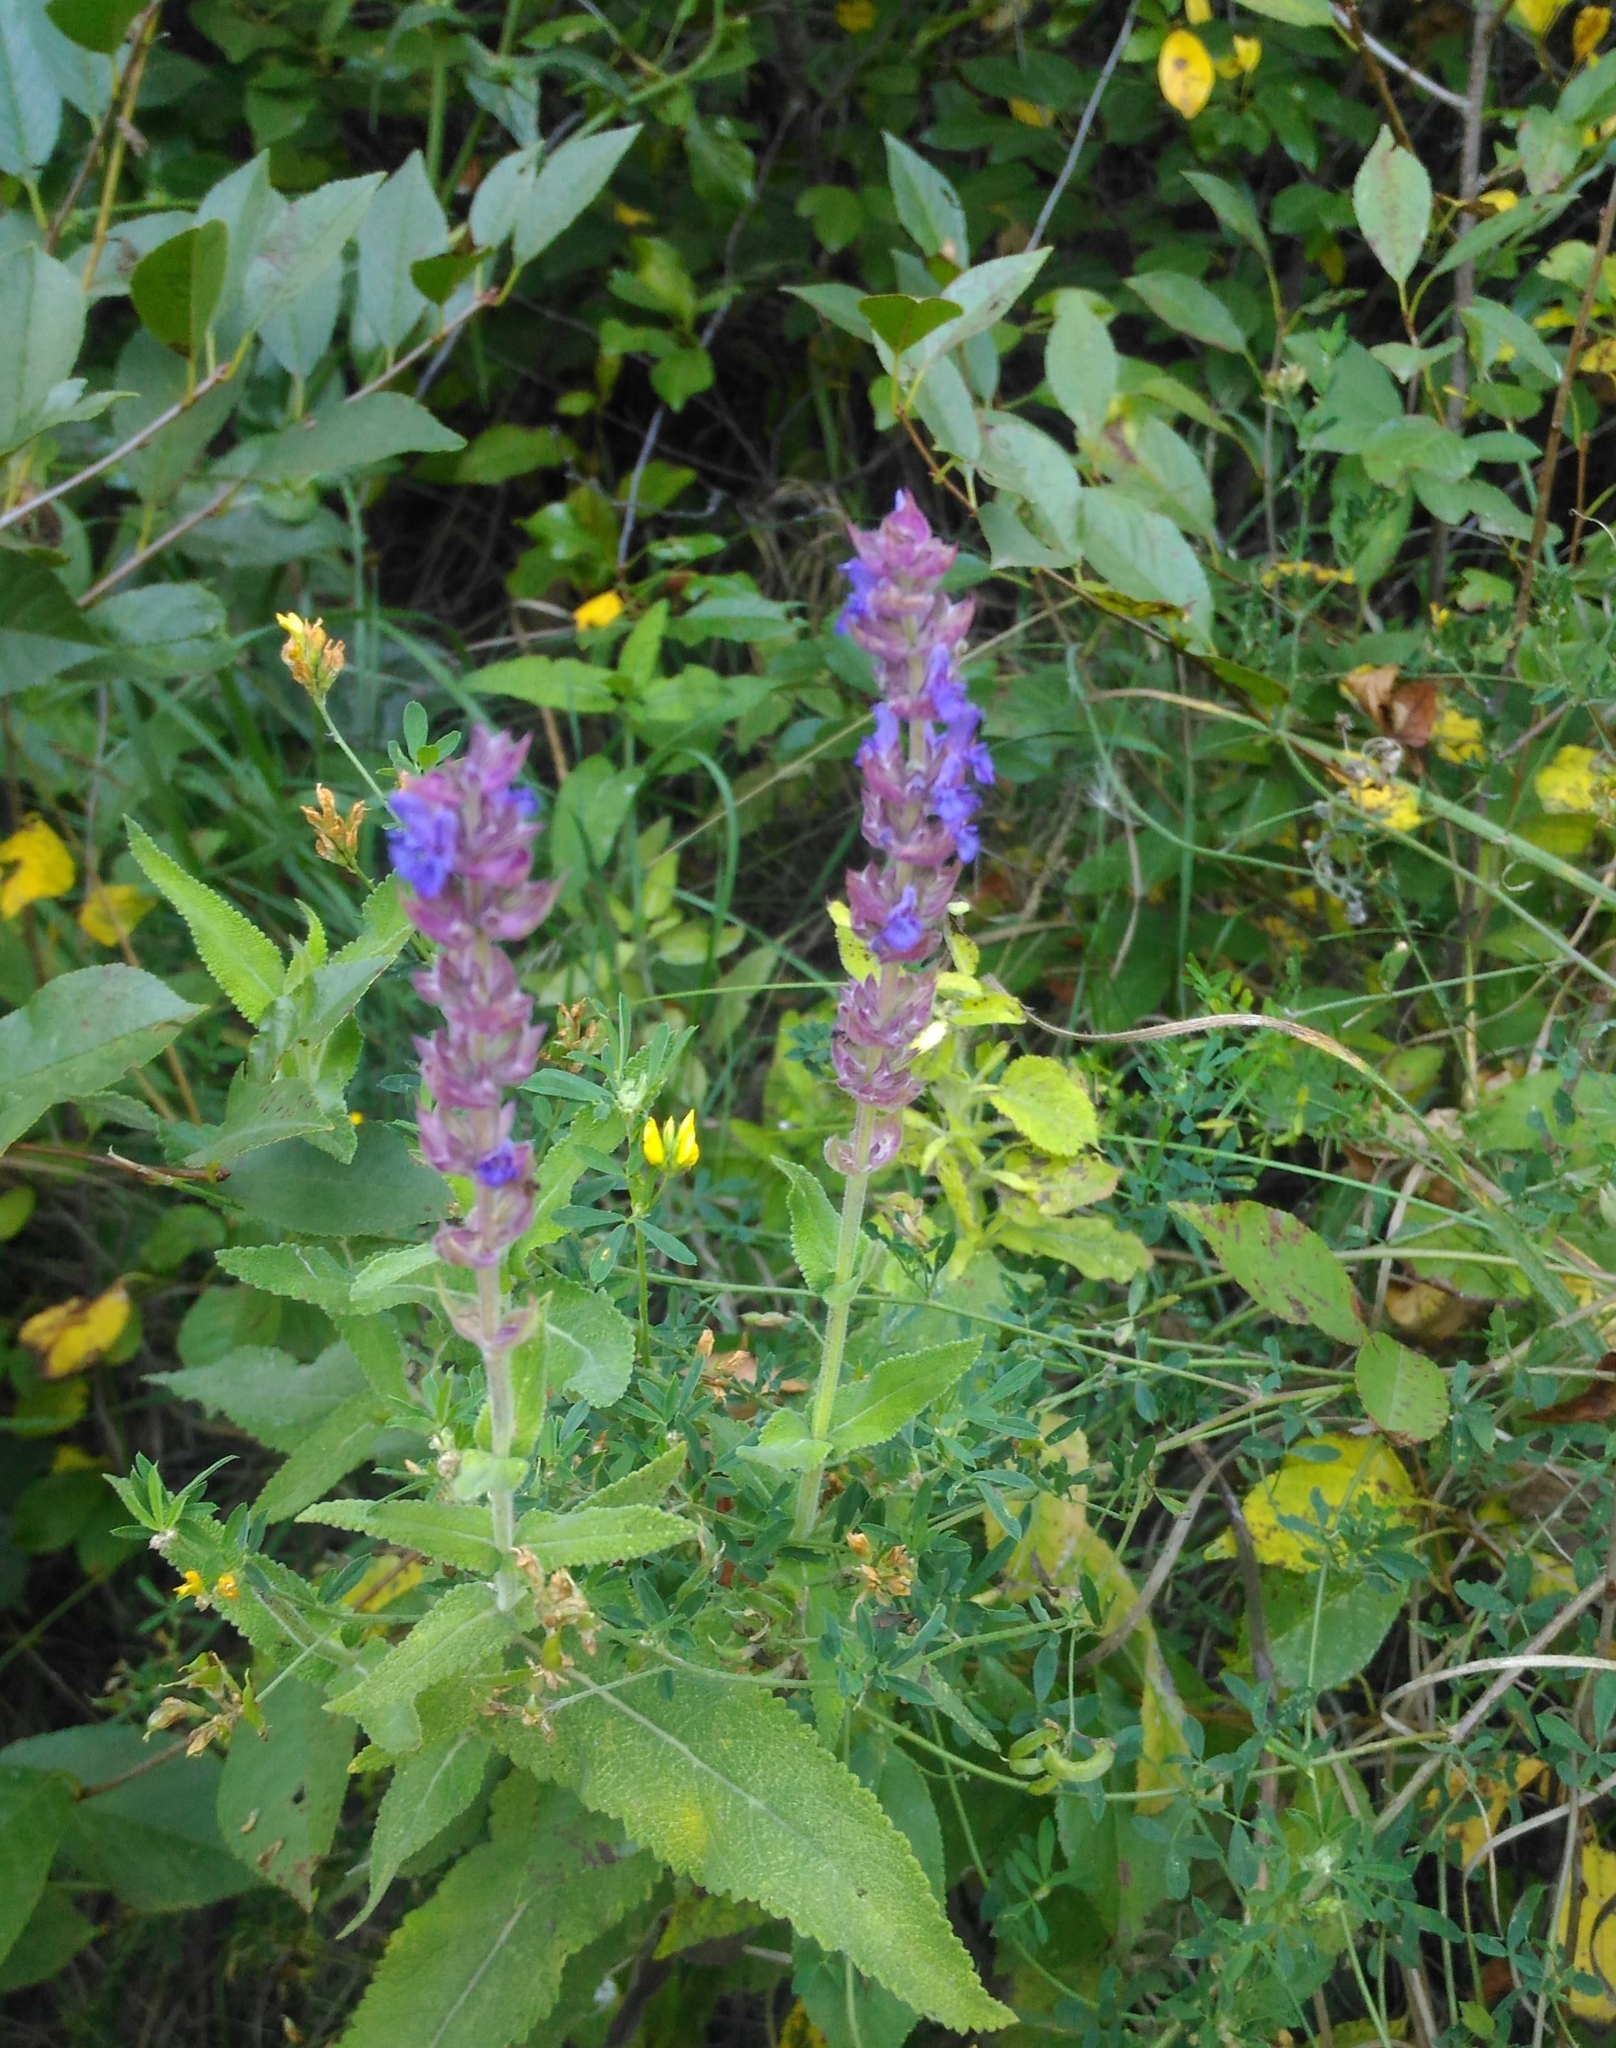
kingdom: Plantae
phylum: Tracheophyta
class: Magnoliopsida
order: Lamiales
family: Lamiaceae
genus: Salvia
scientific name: Salvia nemorosa
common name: Balkan clary
